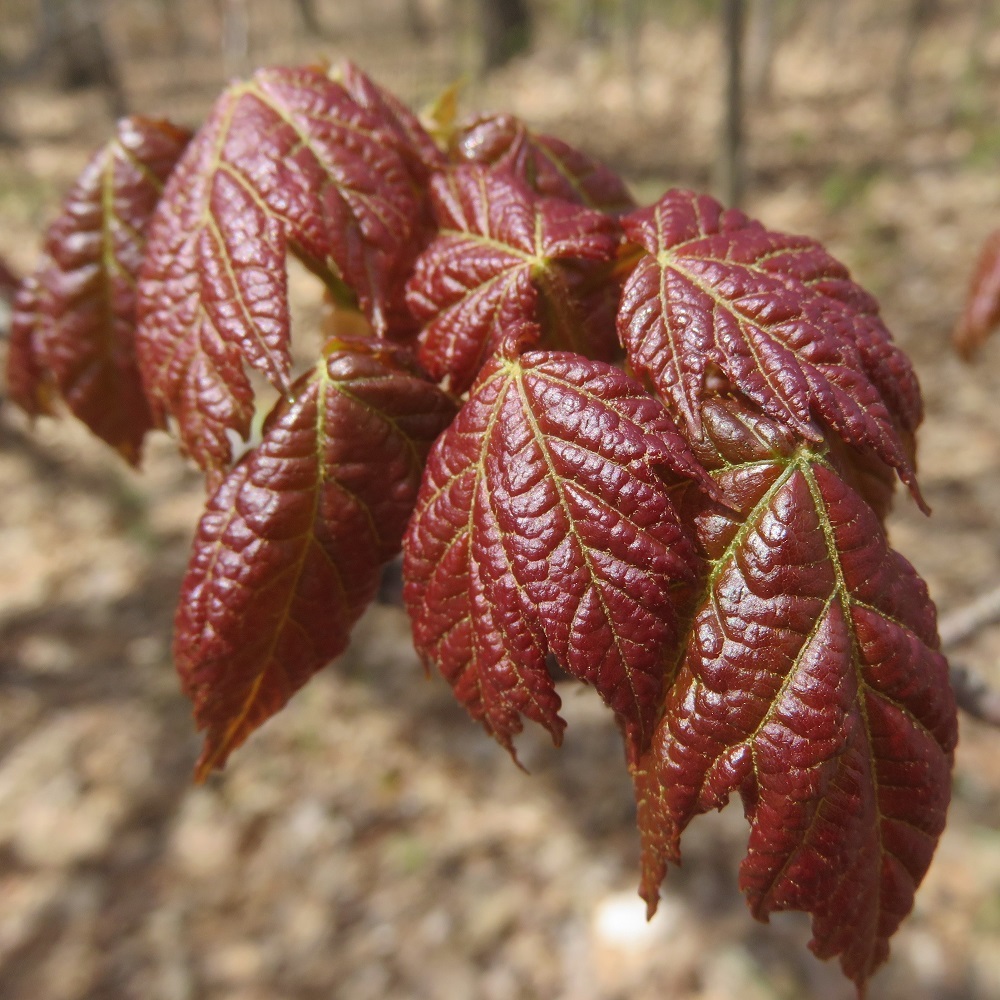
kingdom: Plantae
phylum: Tracheophyta
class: Magnoliopsida
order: Sapindales
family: Sapindaceae
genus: Acer
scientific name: Acer rubrum
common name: Red maple
